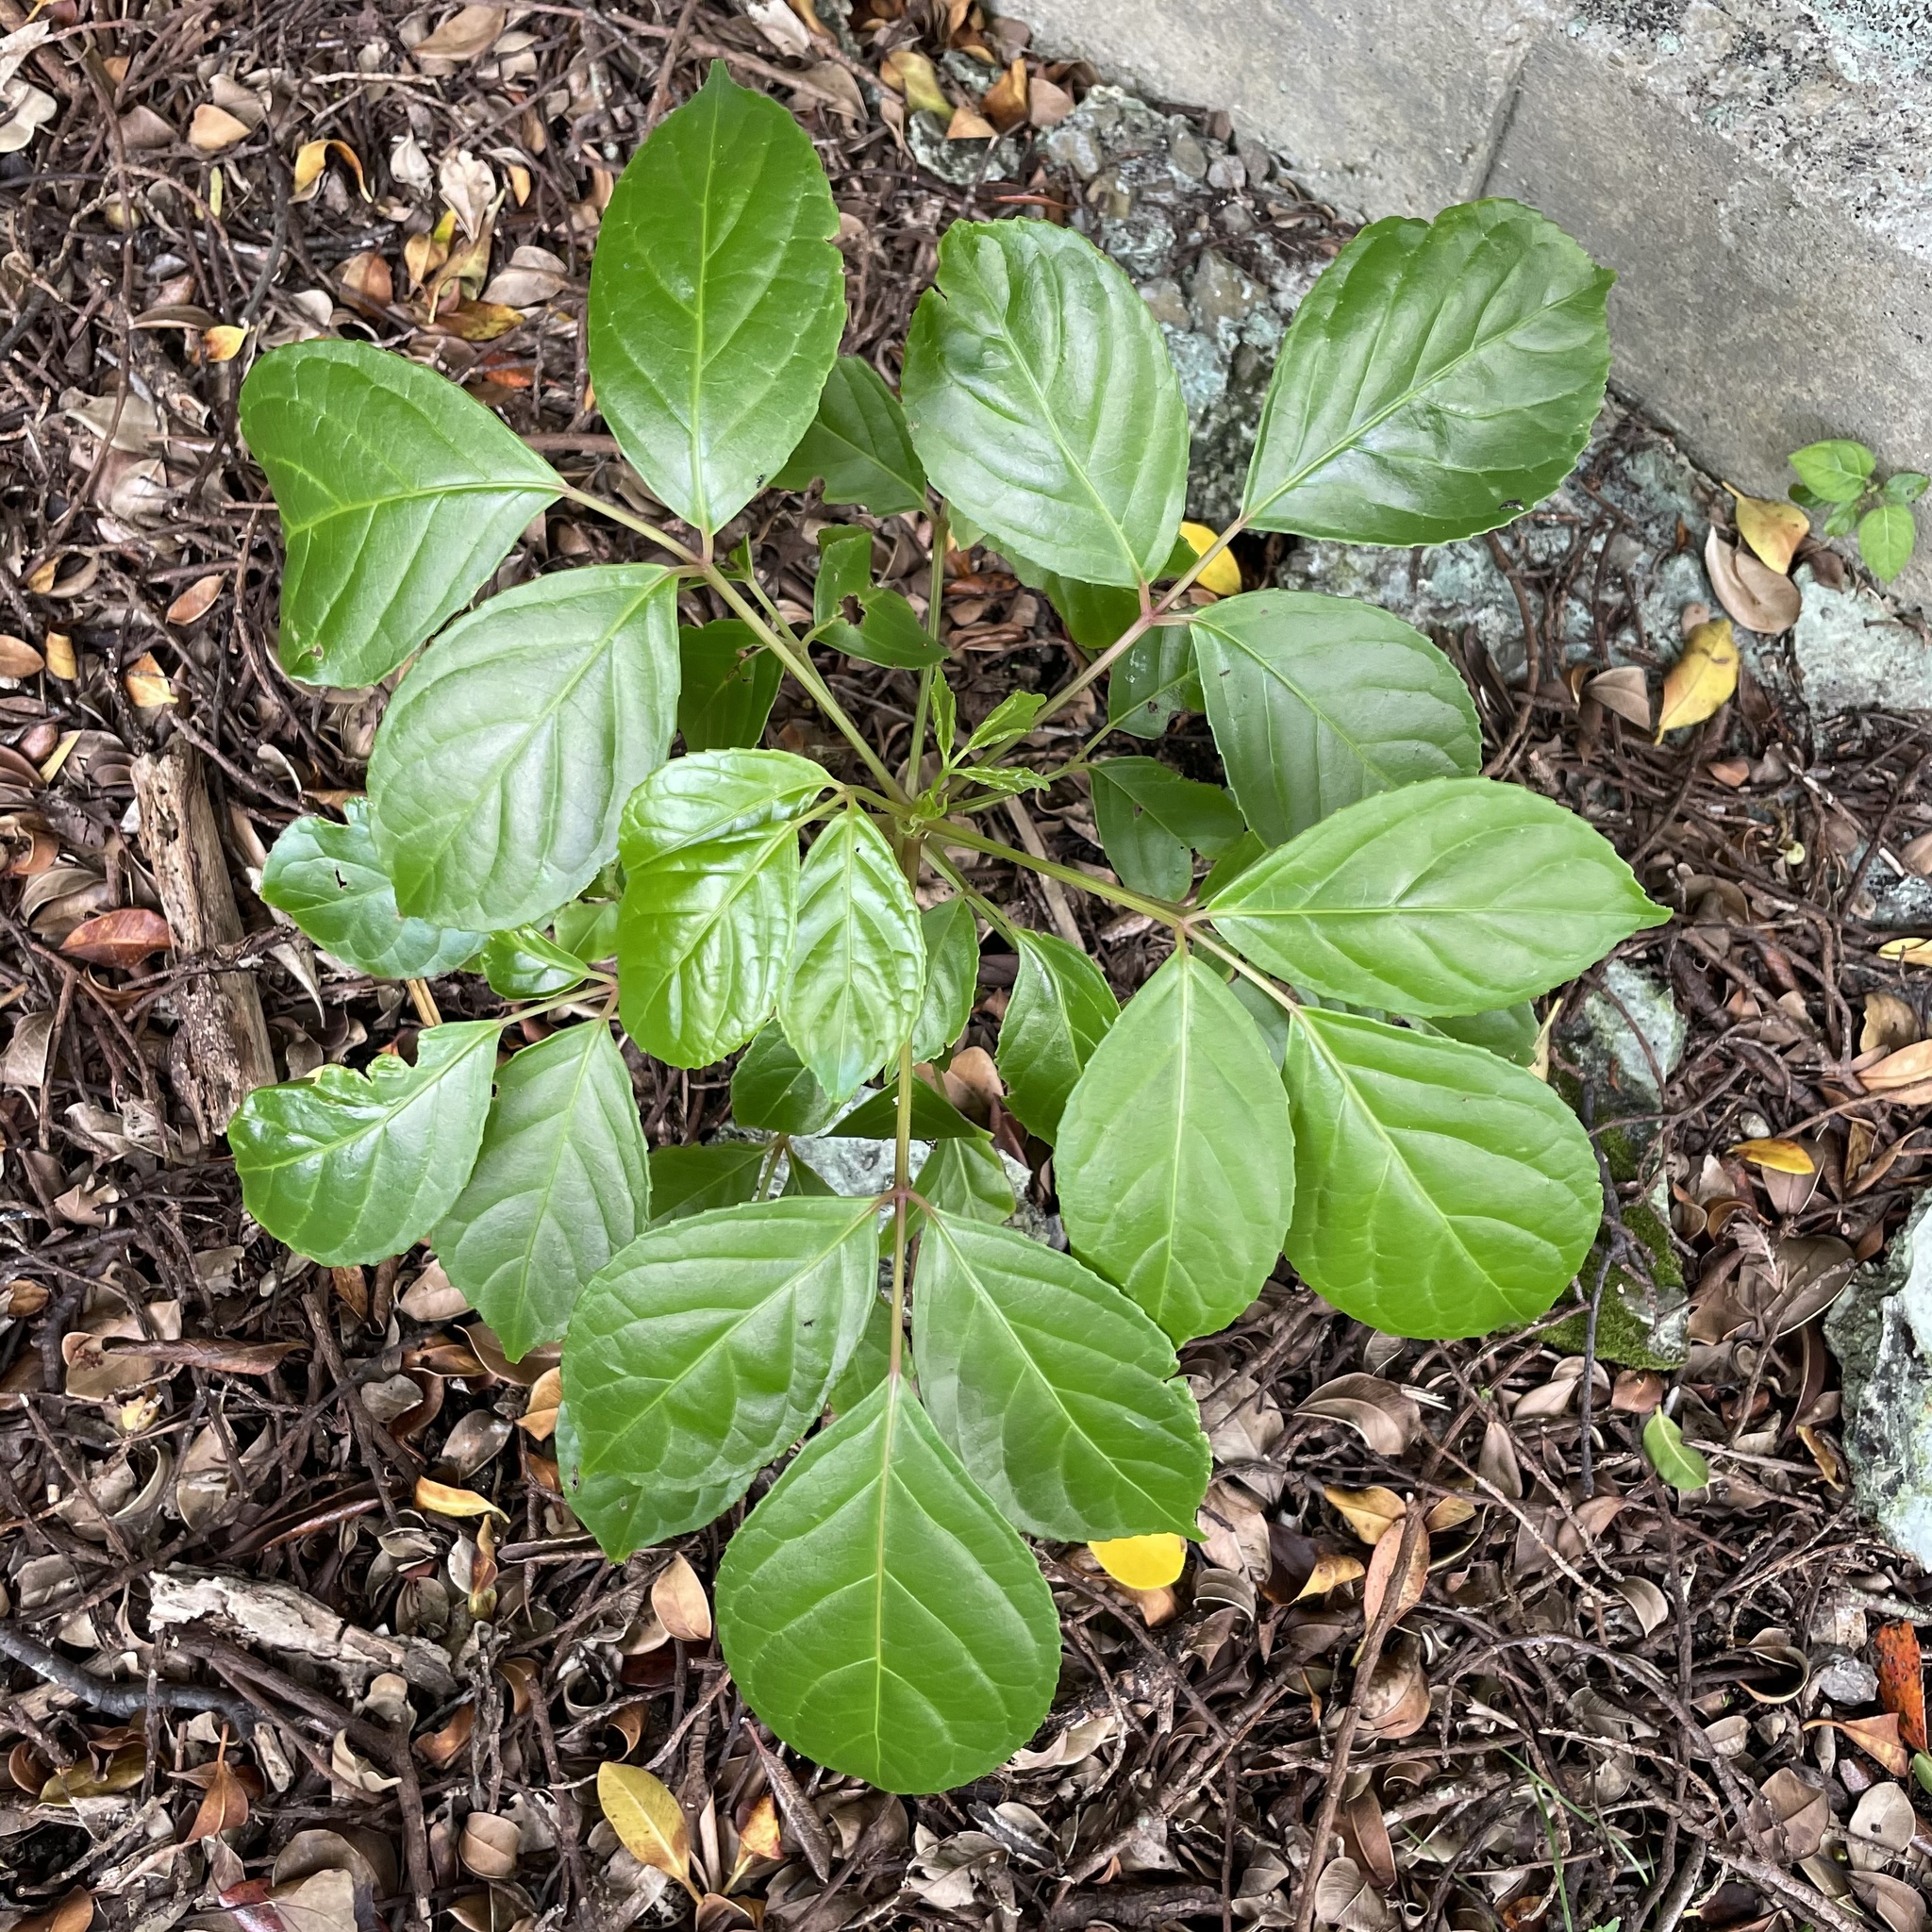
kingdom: Plantae
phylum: Tracheophyta
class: Magnoliopsida
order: Malpighiales
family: Phyllanthaceae
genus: Bischofia
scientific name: Bischofia javanica
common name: Javanese bishopwood
